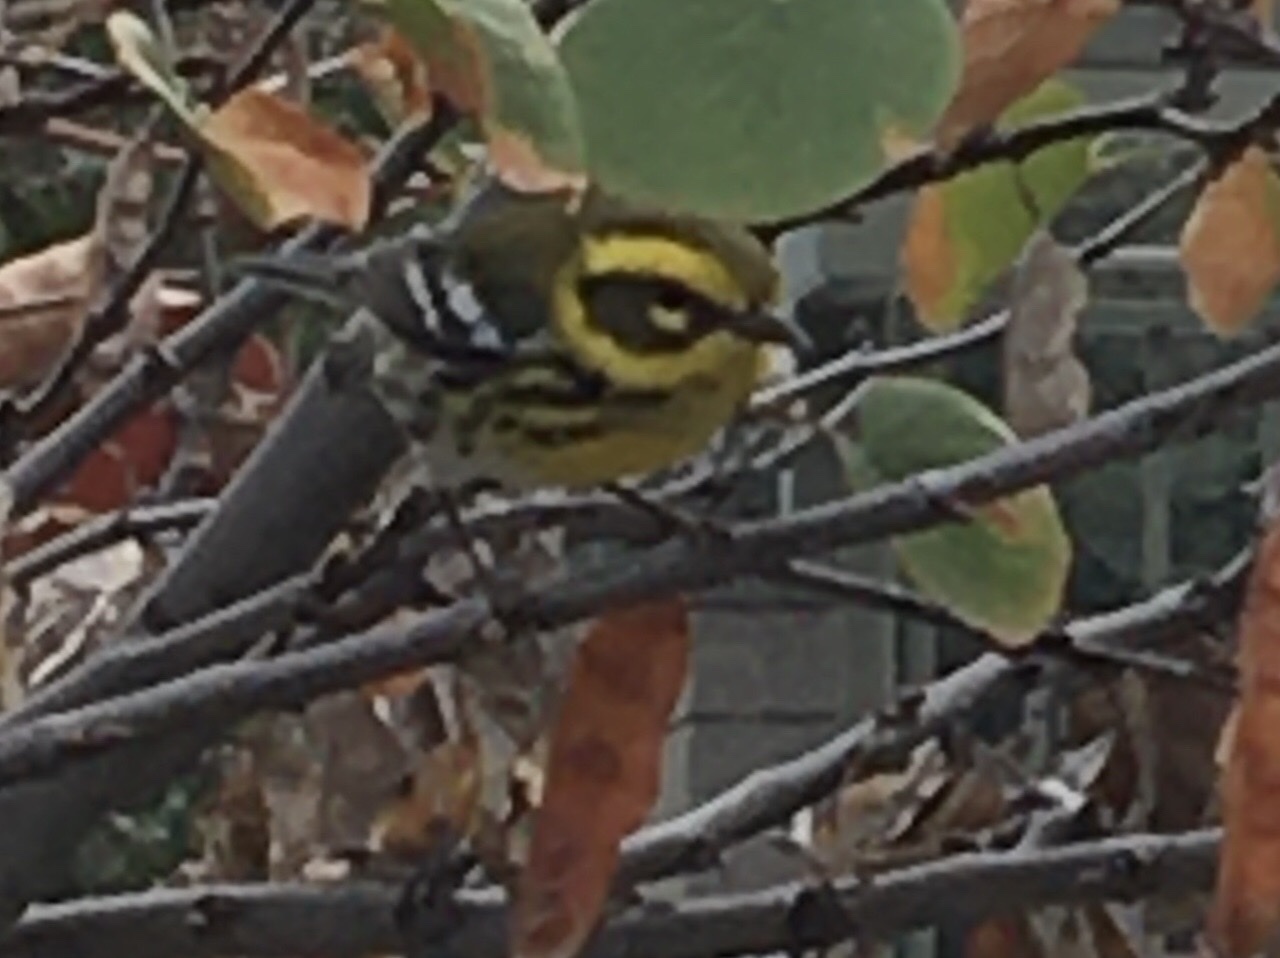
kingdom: Animalia
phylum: Chordata
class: Aves
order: Passeriformes
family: Parulidae
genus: Setophaga
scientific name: Setophaga townsendi
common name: Townsend's warbler
